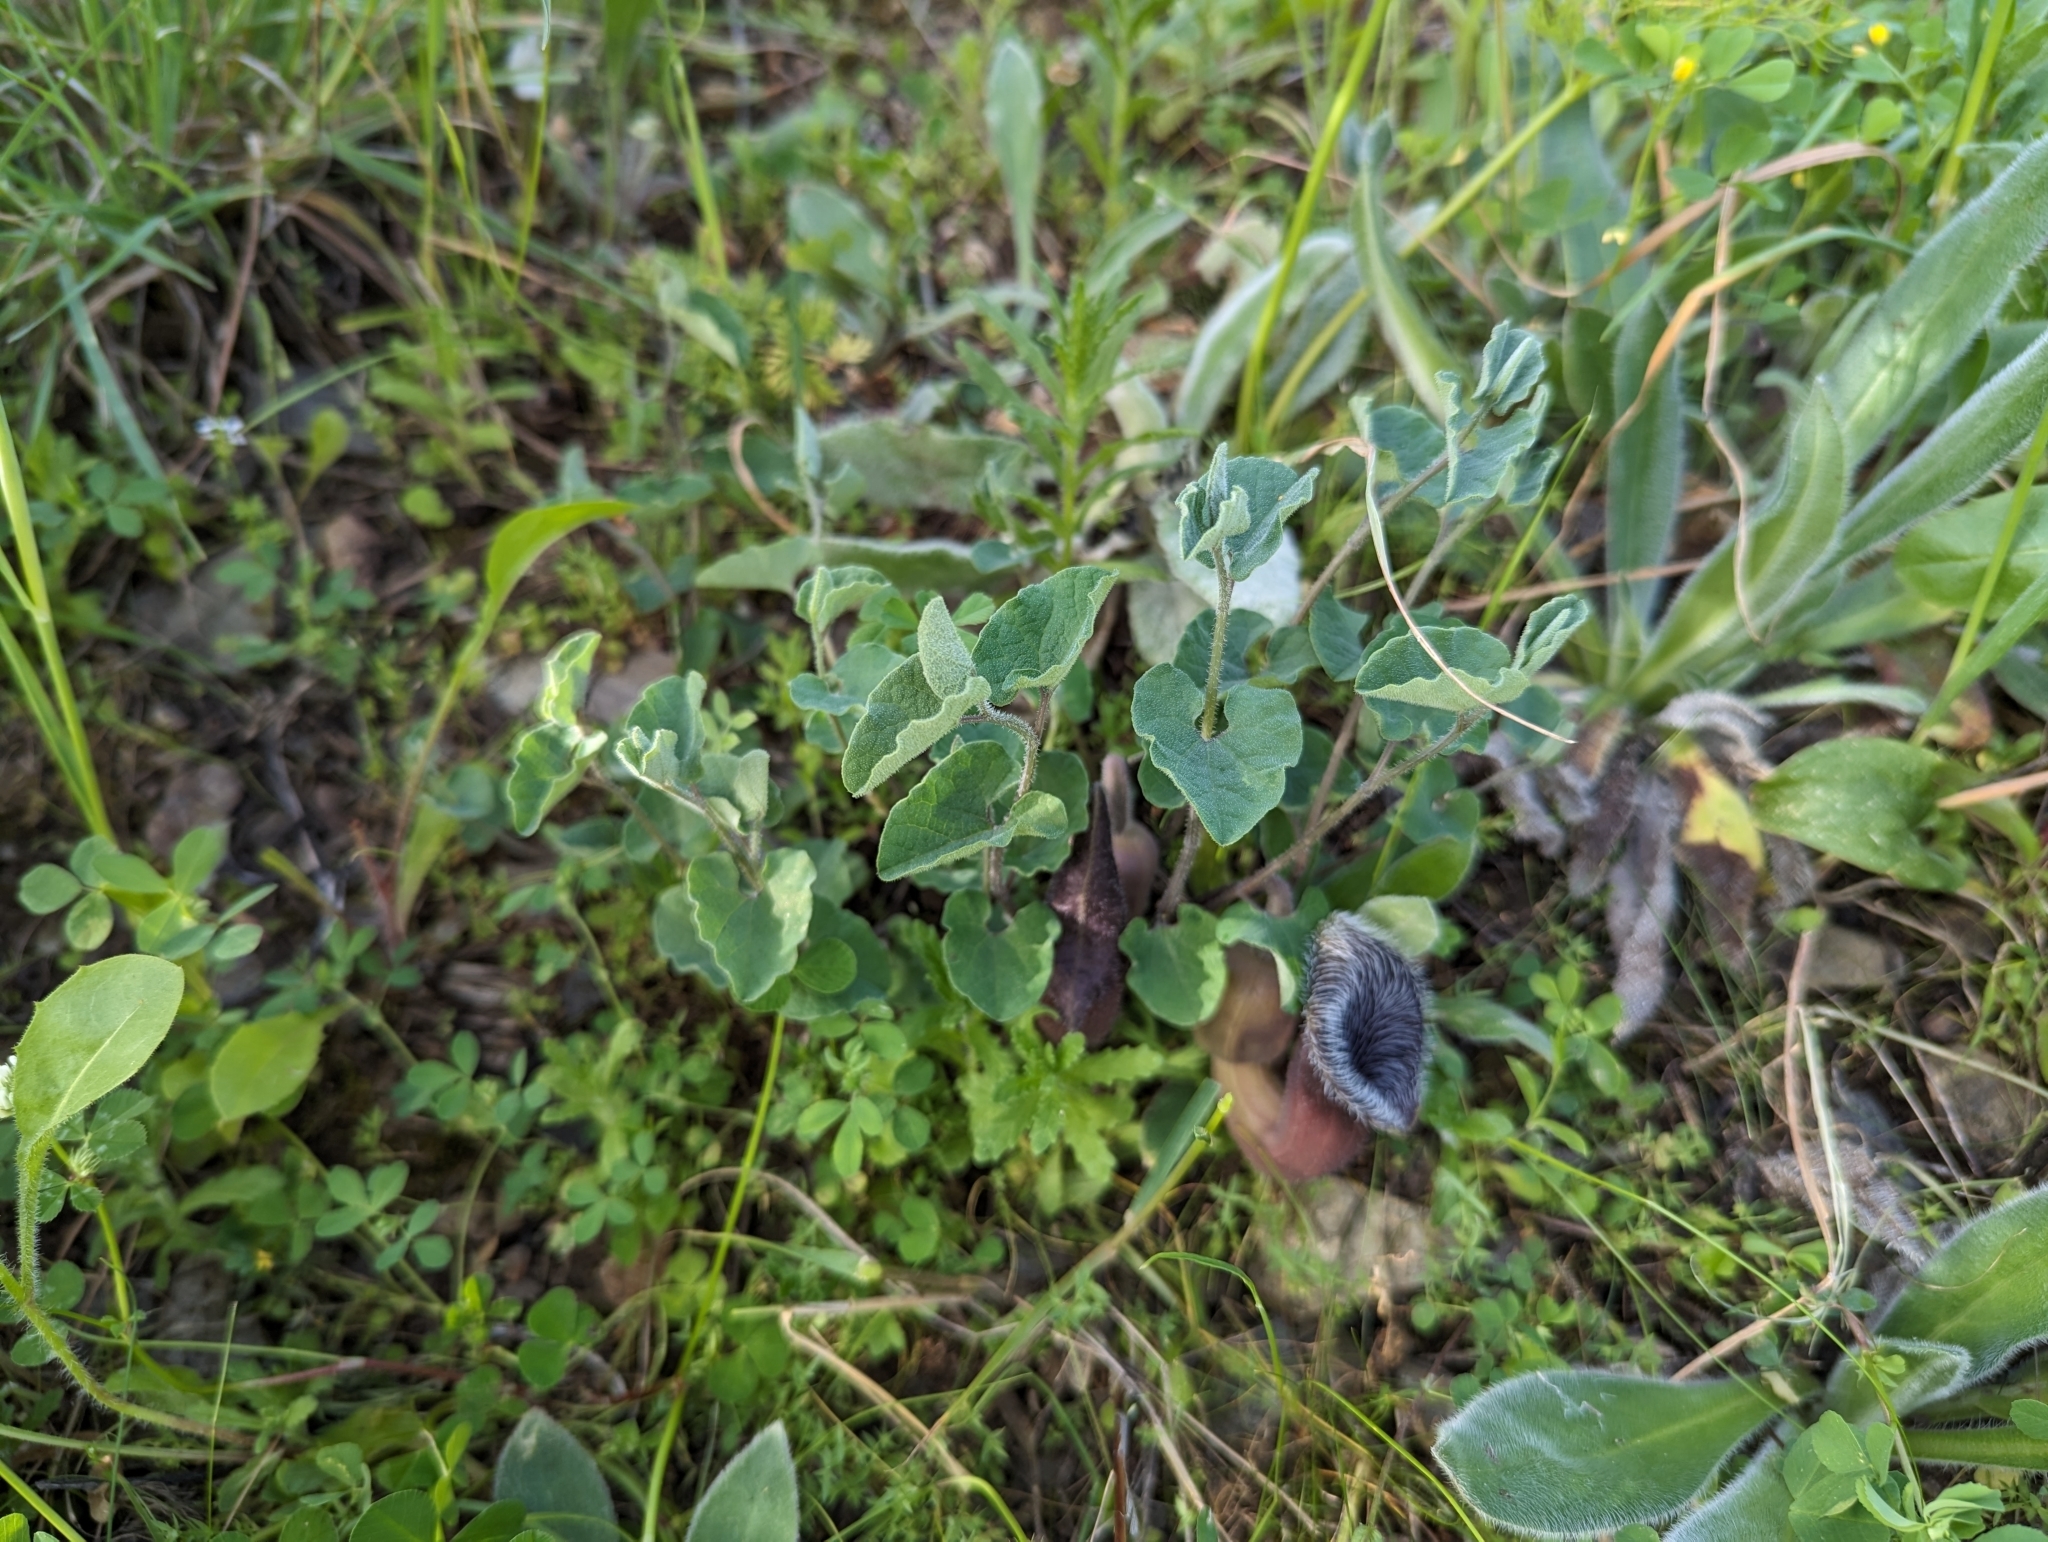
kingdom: Plantae
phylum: Tracheophyta
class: Magnoliopsida
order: Piperales
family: Aristolochiaceae
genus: Aristolochia
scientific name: Aristolochia cretica
